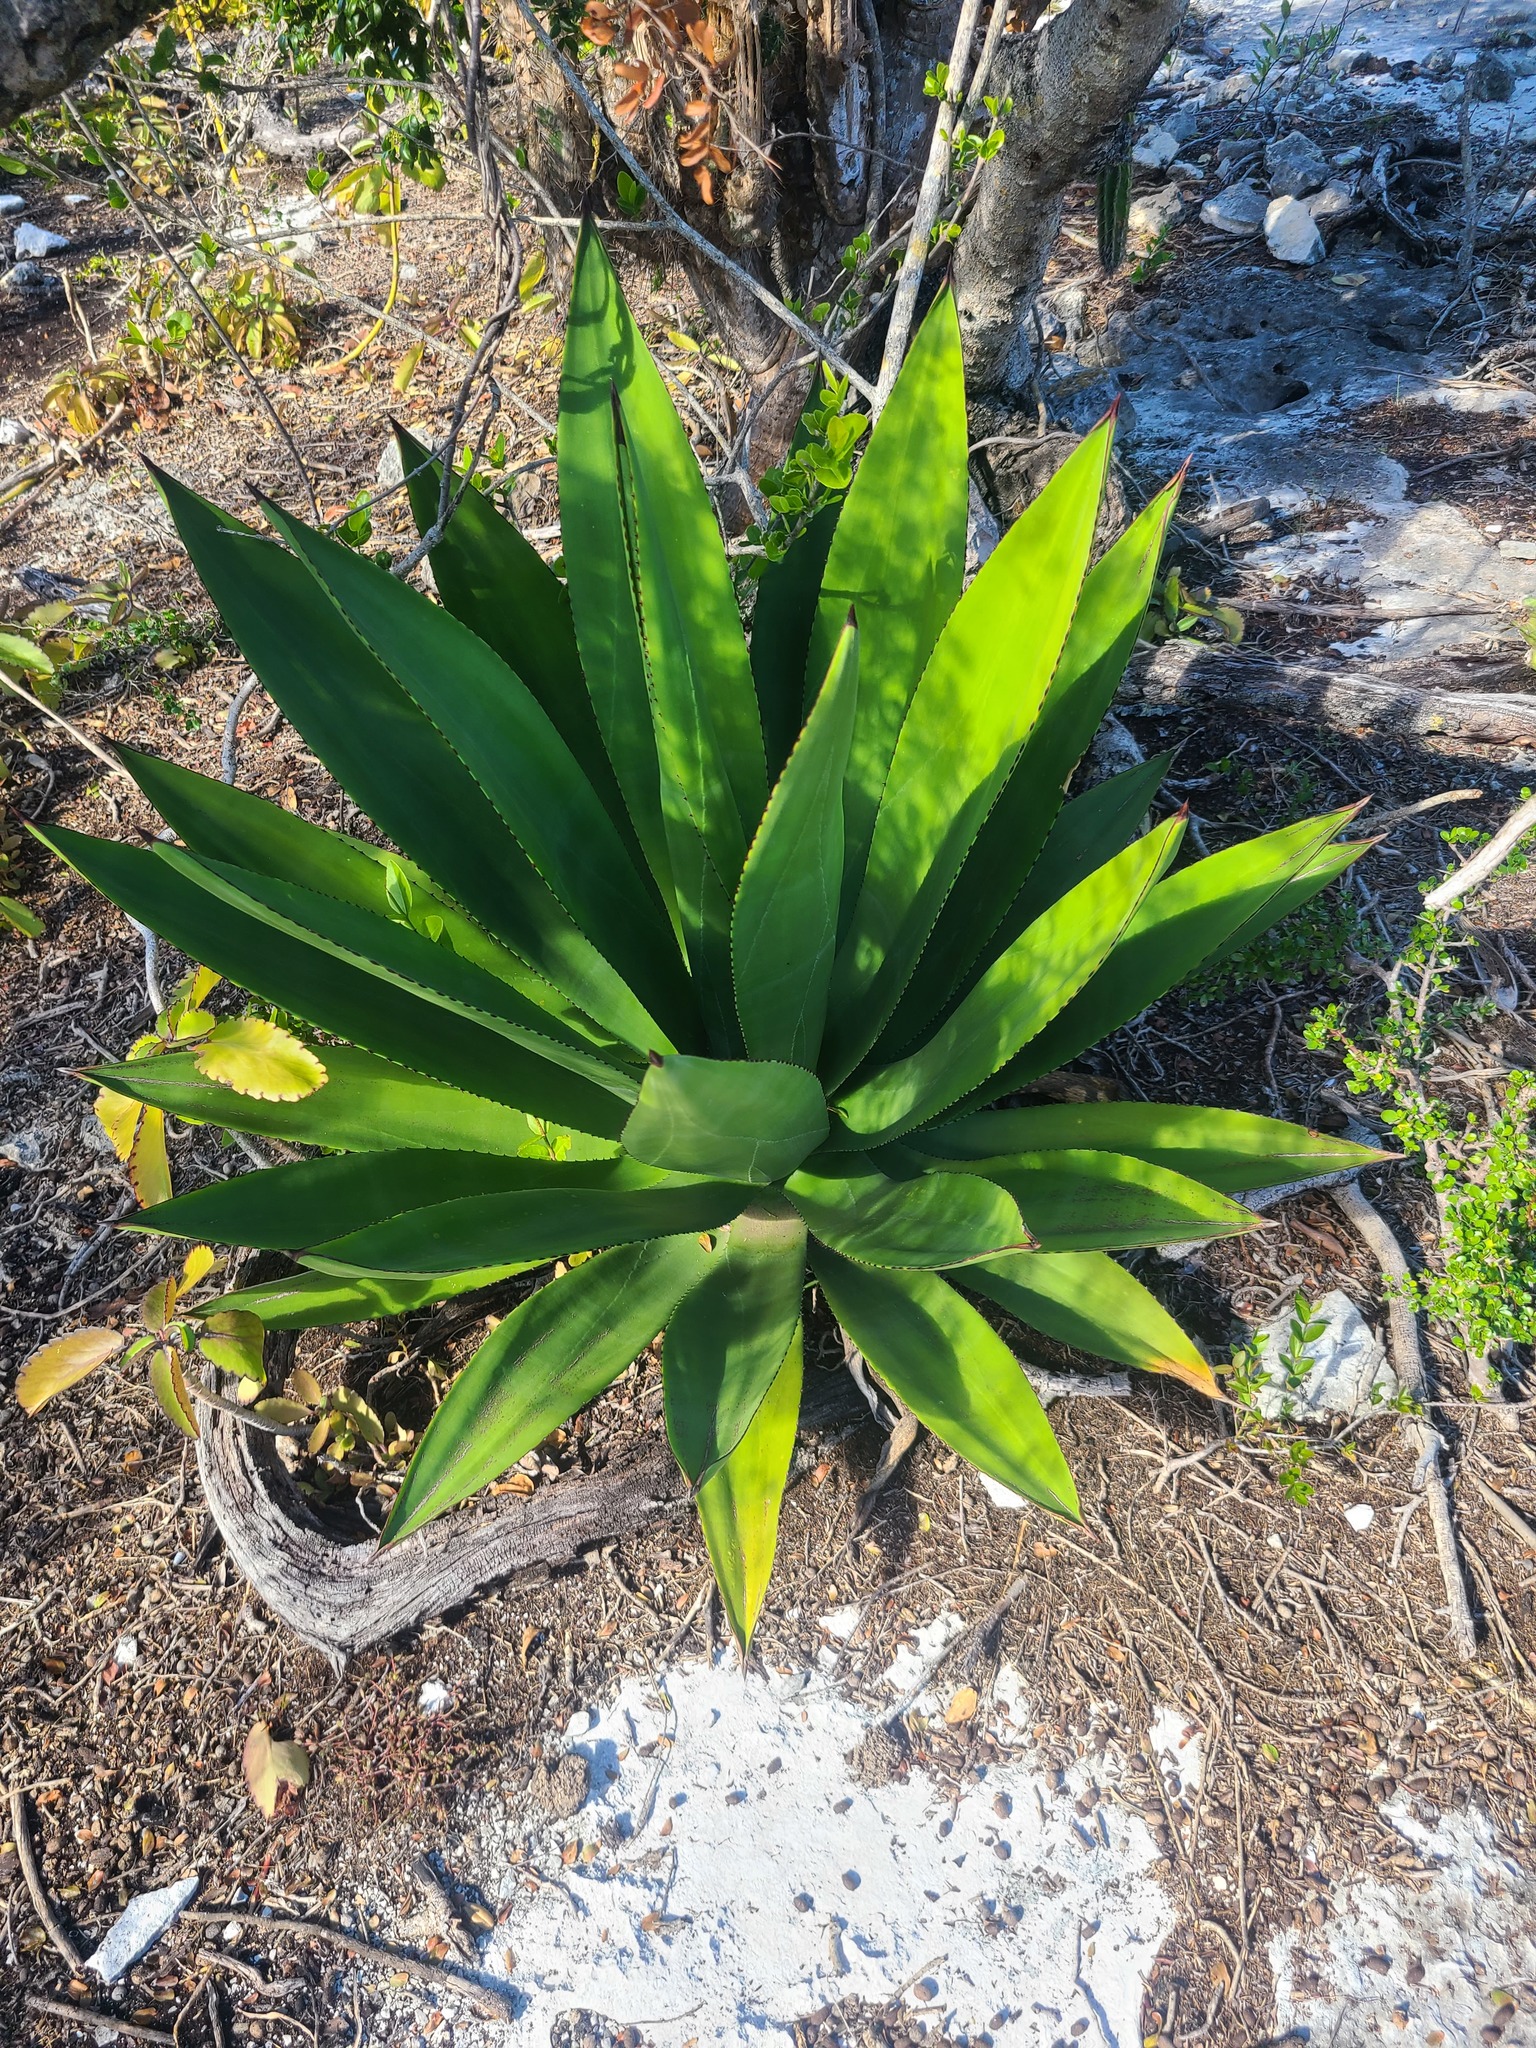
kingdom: Plantae
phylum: Tracheophyta
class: Liliopsida
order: Asparagales
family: Asparagaceae
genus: Agave
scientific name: Agave missionum
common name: Century plant
